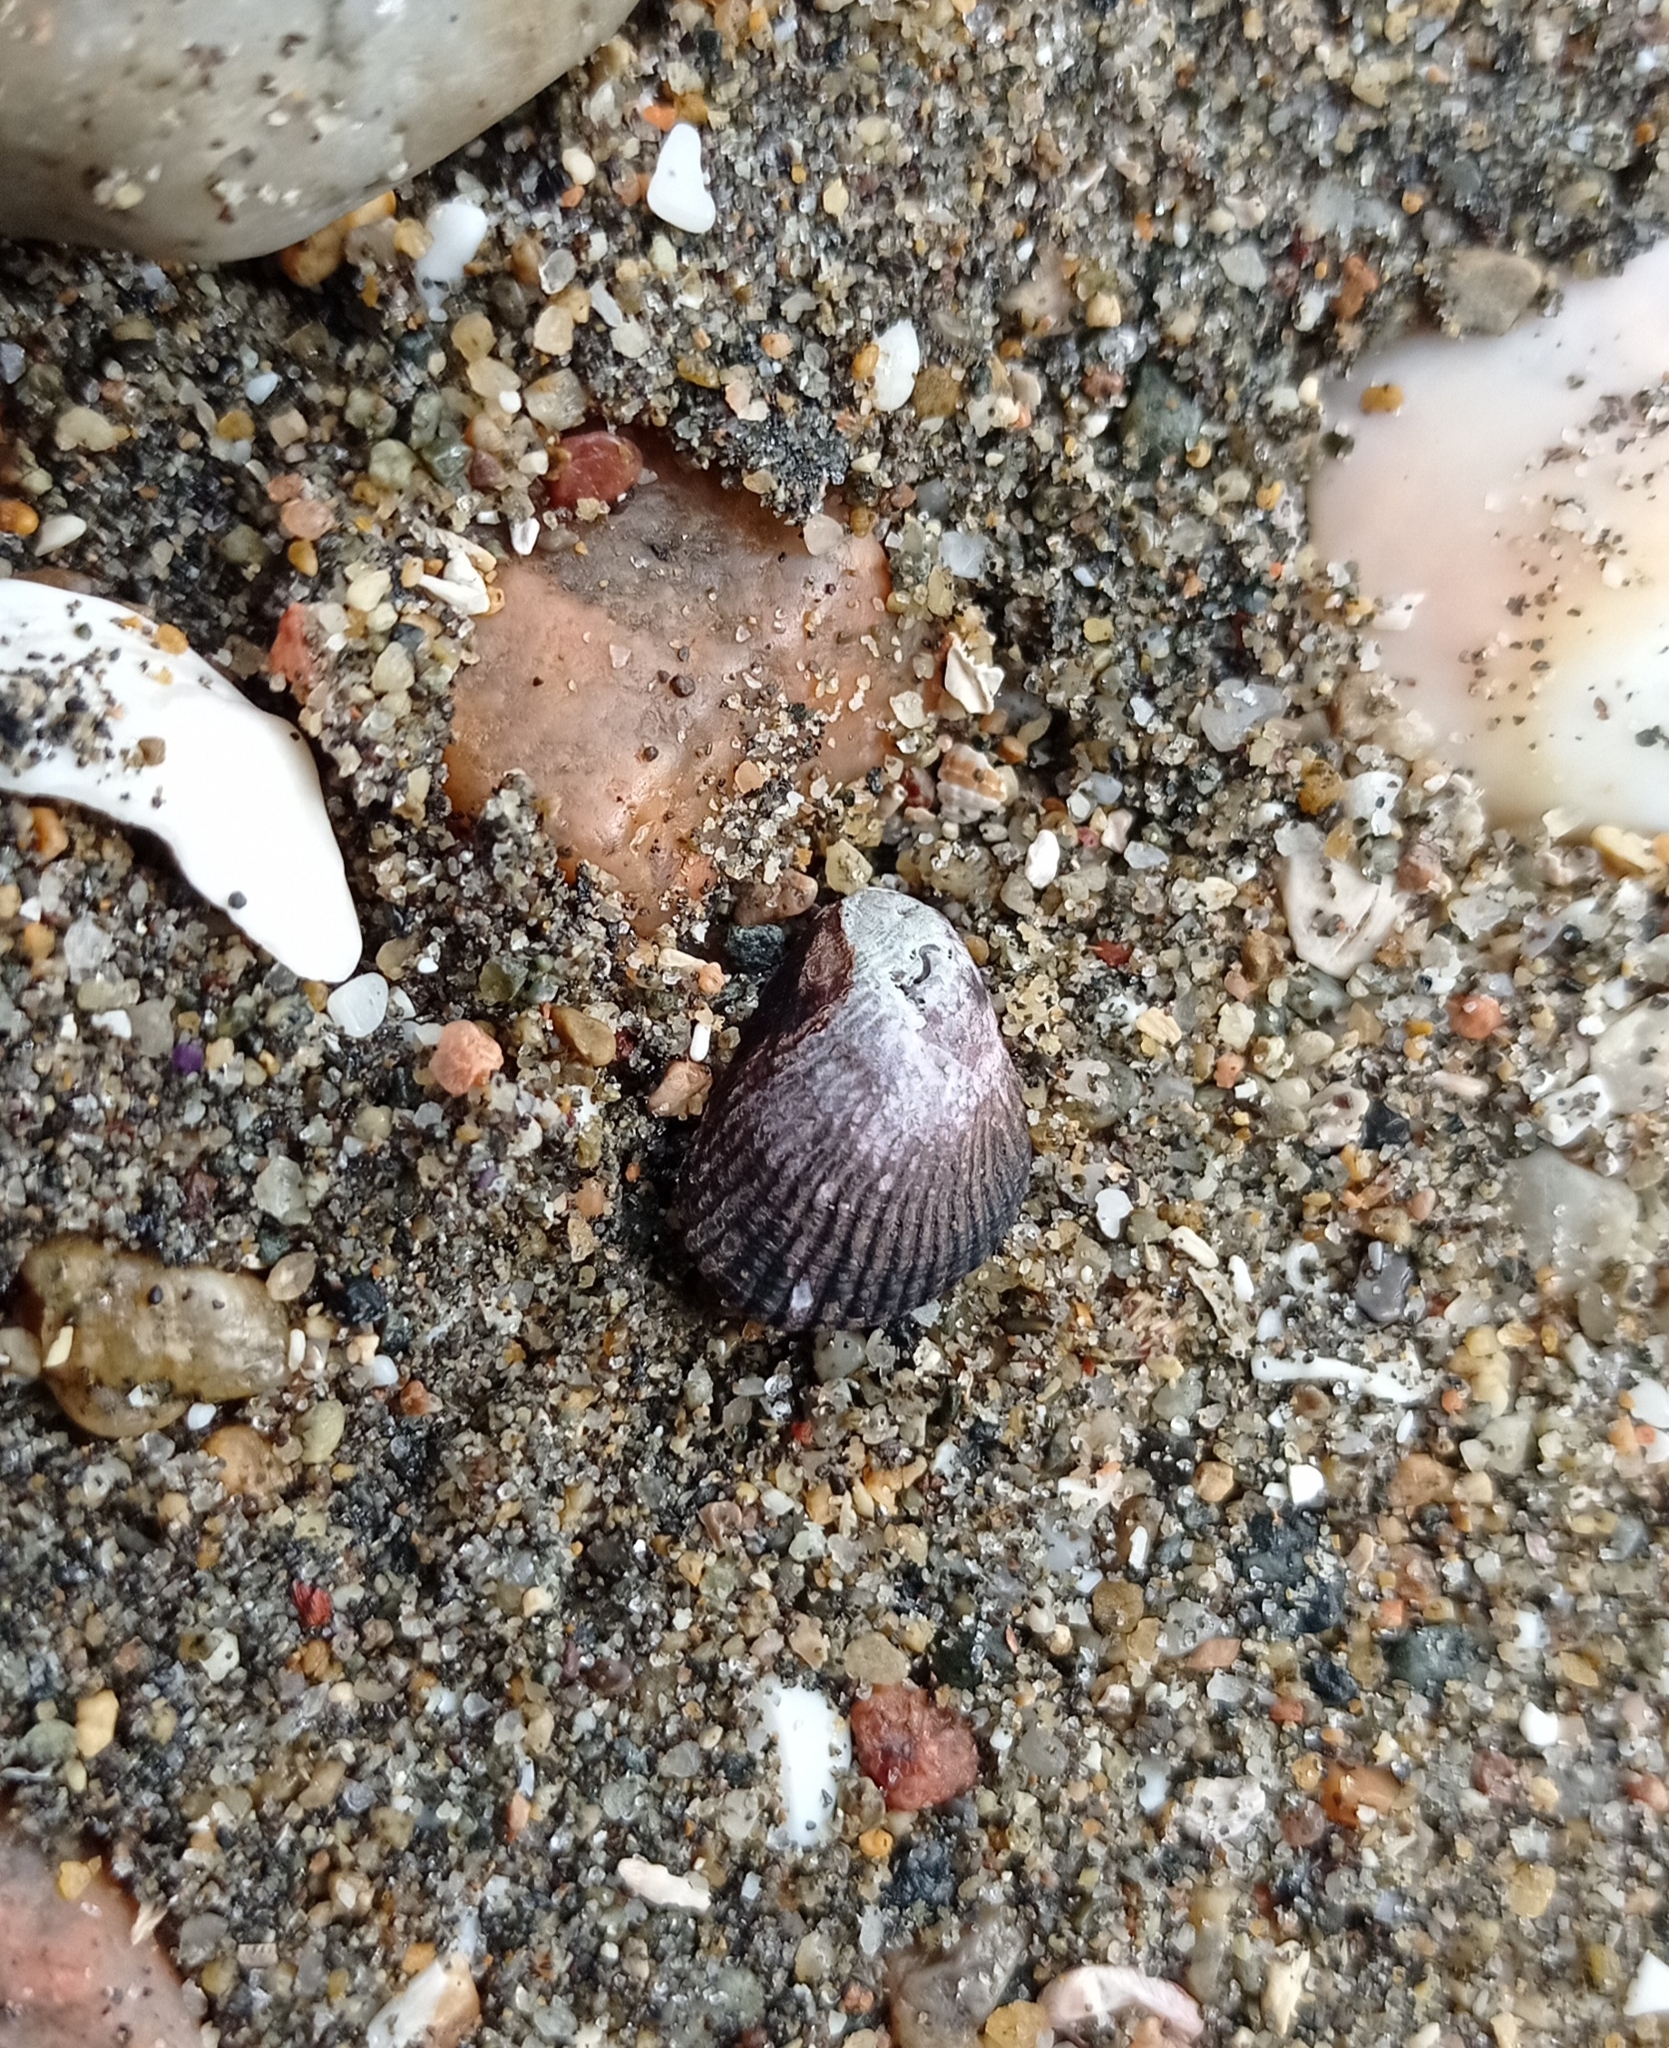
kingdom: Animalia
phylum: Mollusca
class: Bivalvia
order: Mytilida
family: Mytilidae
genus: Perumytilus
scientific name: Perumytilus purpuratus
